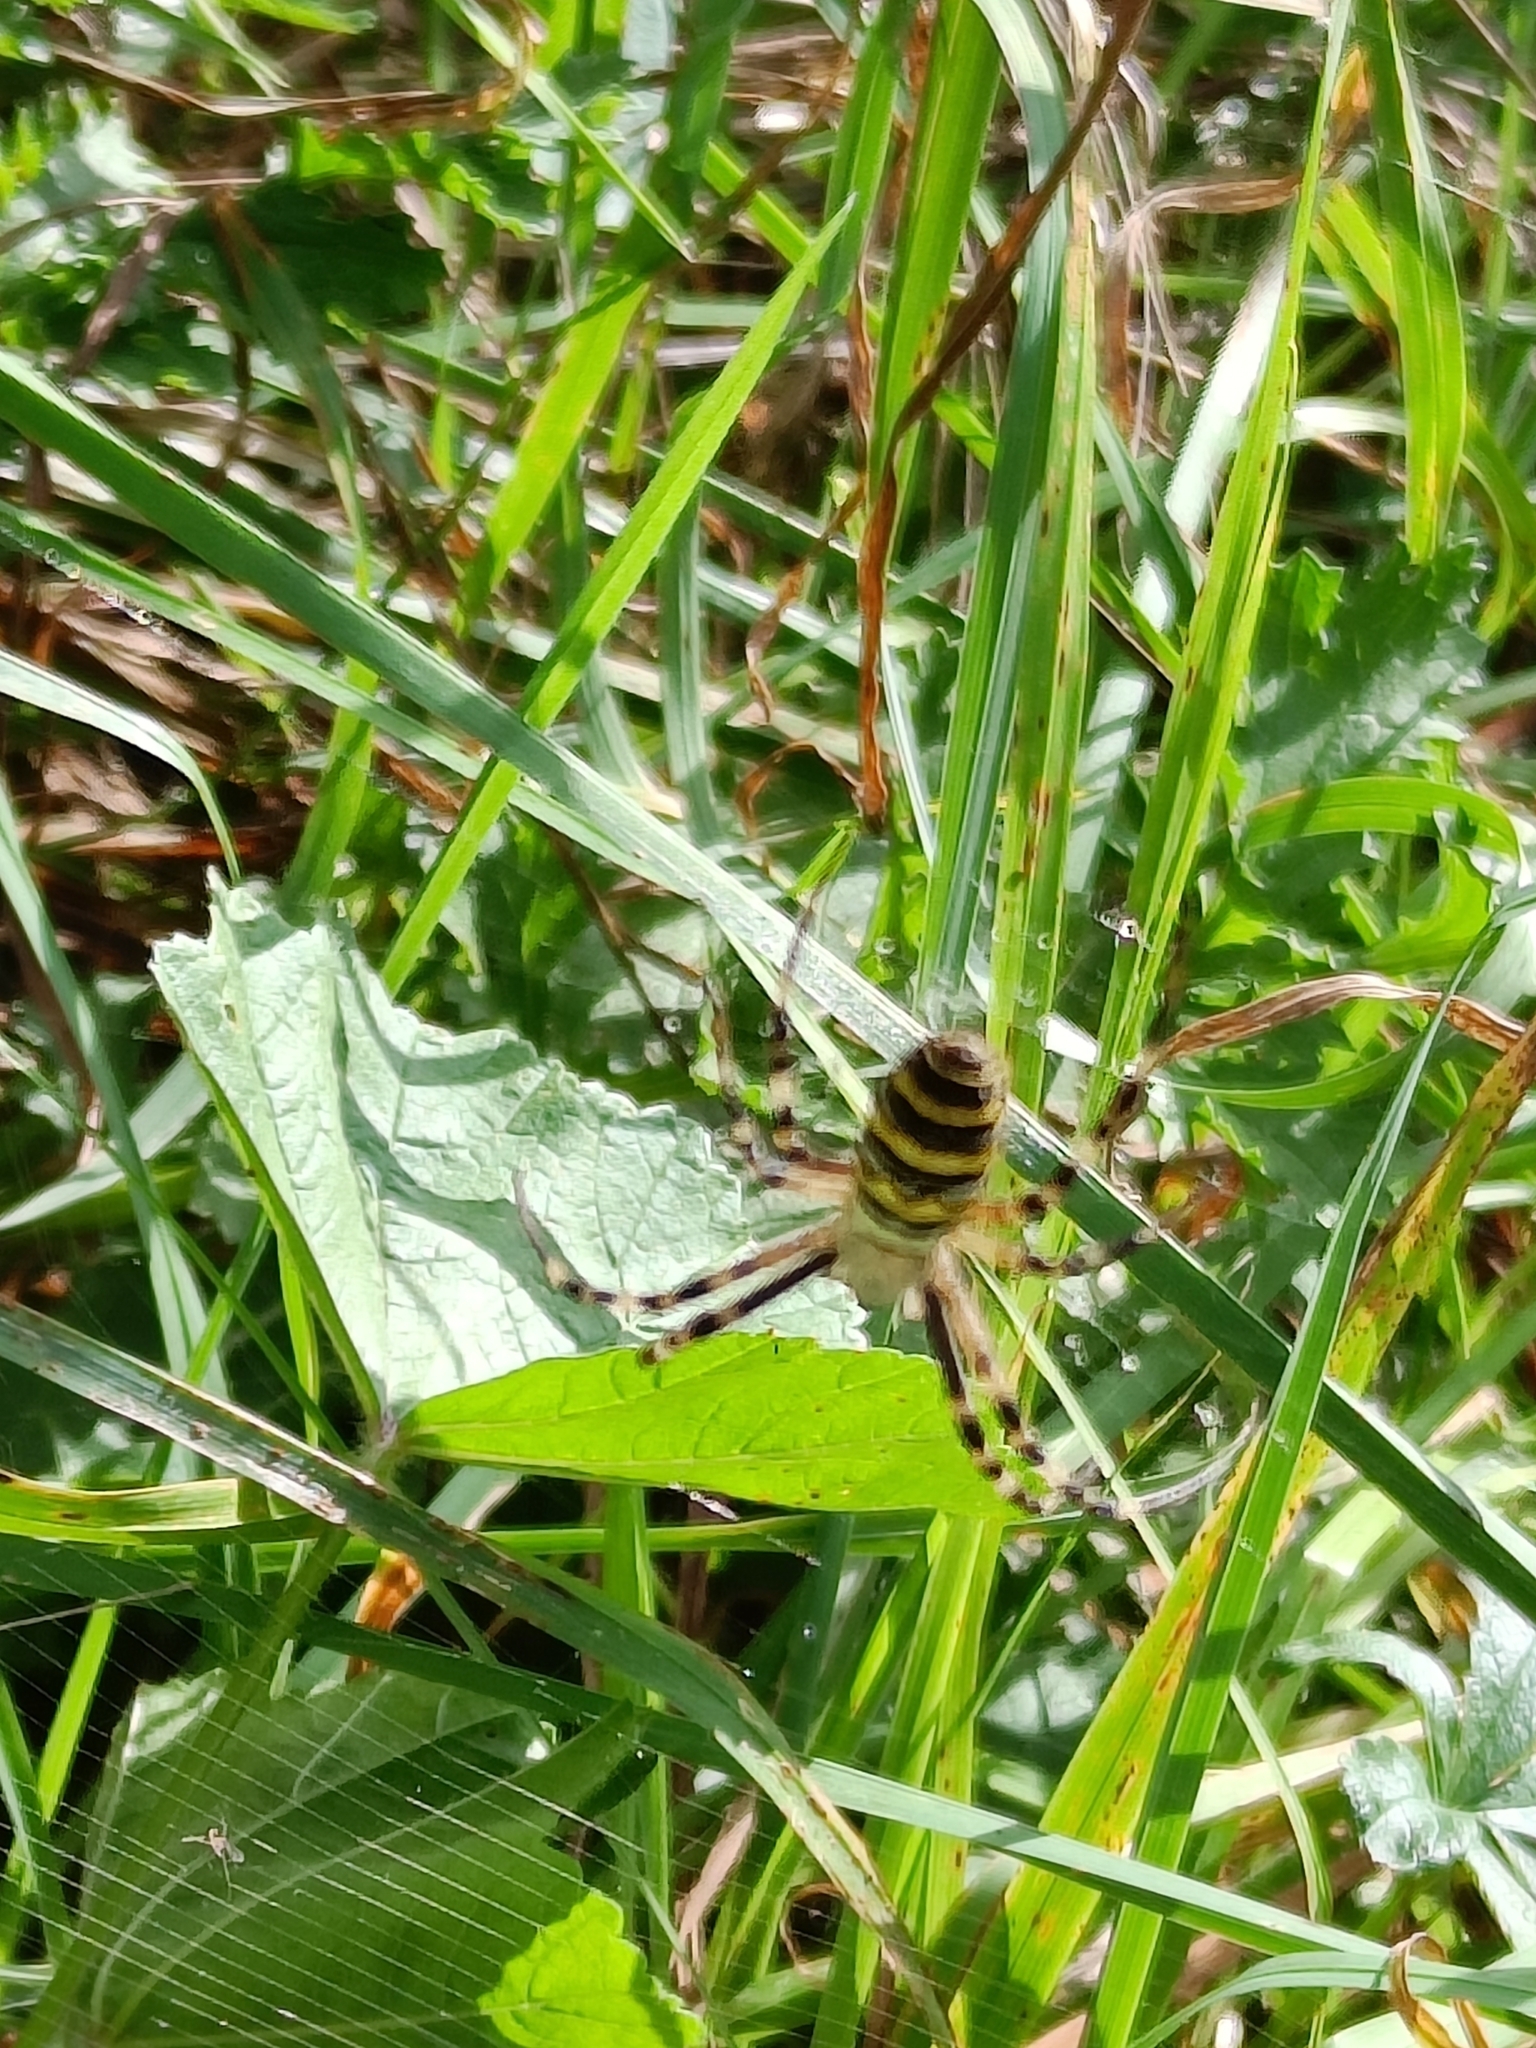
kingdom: Animalia
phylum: Arthropoda
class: Arachnida
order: Araneae
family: Araneidae
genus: Argiope
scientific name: Argiope bruennichi
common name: Wasp spider
